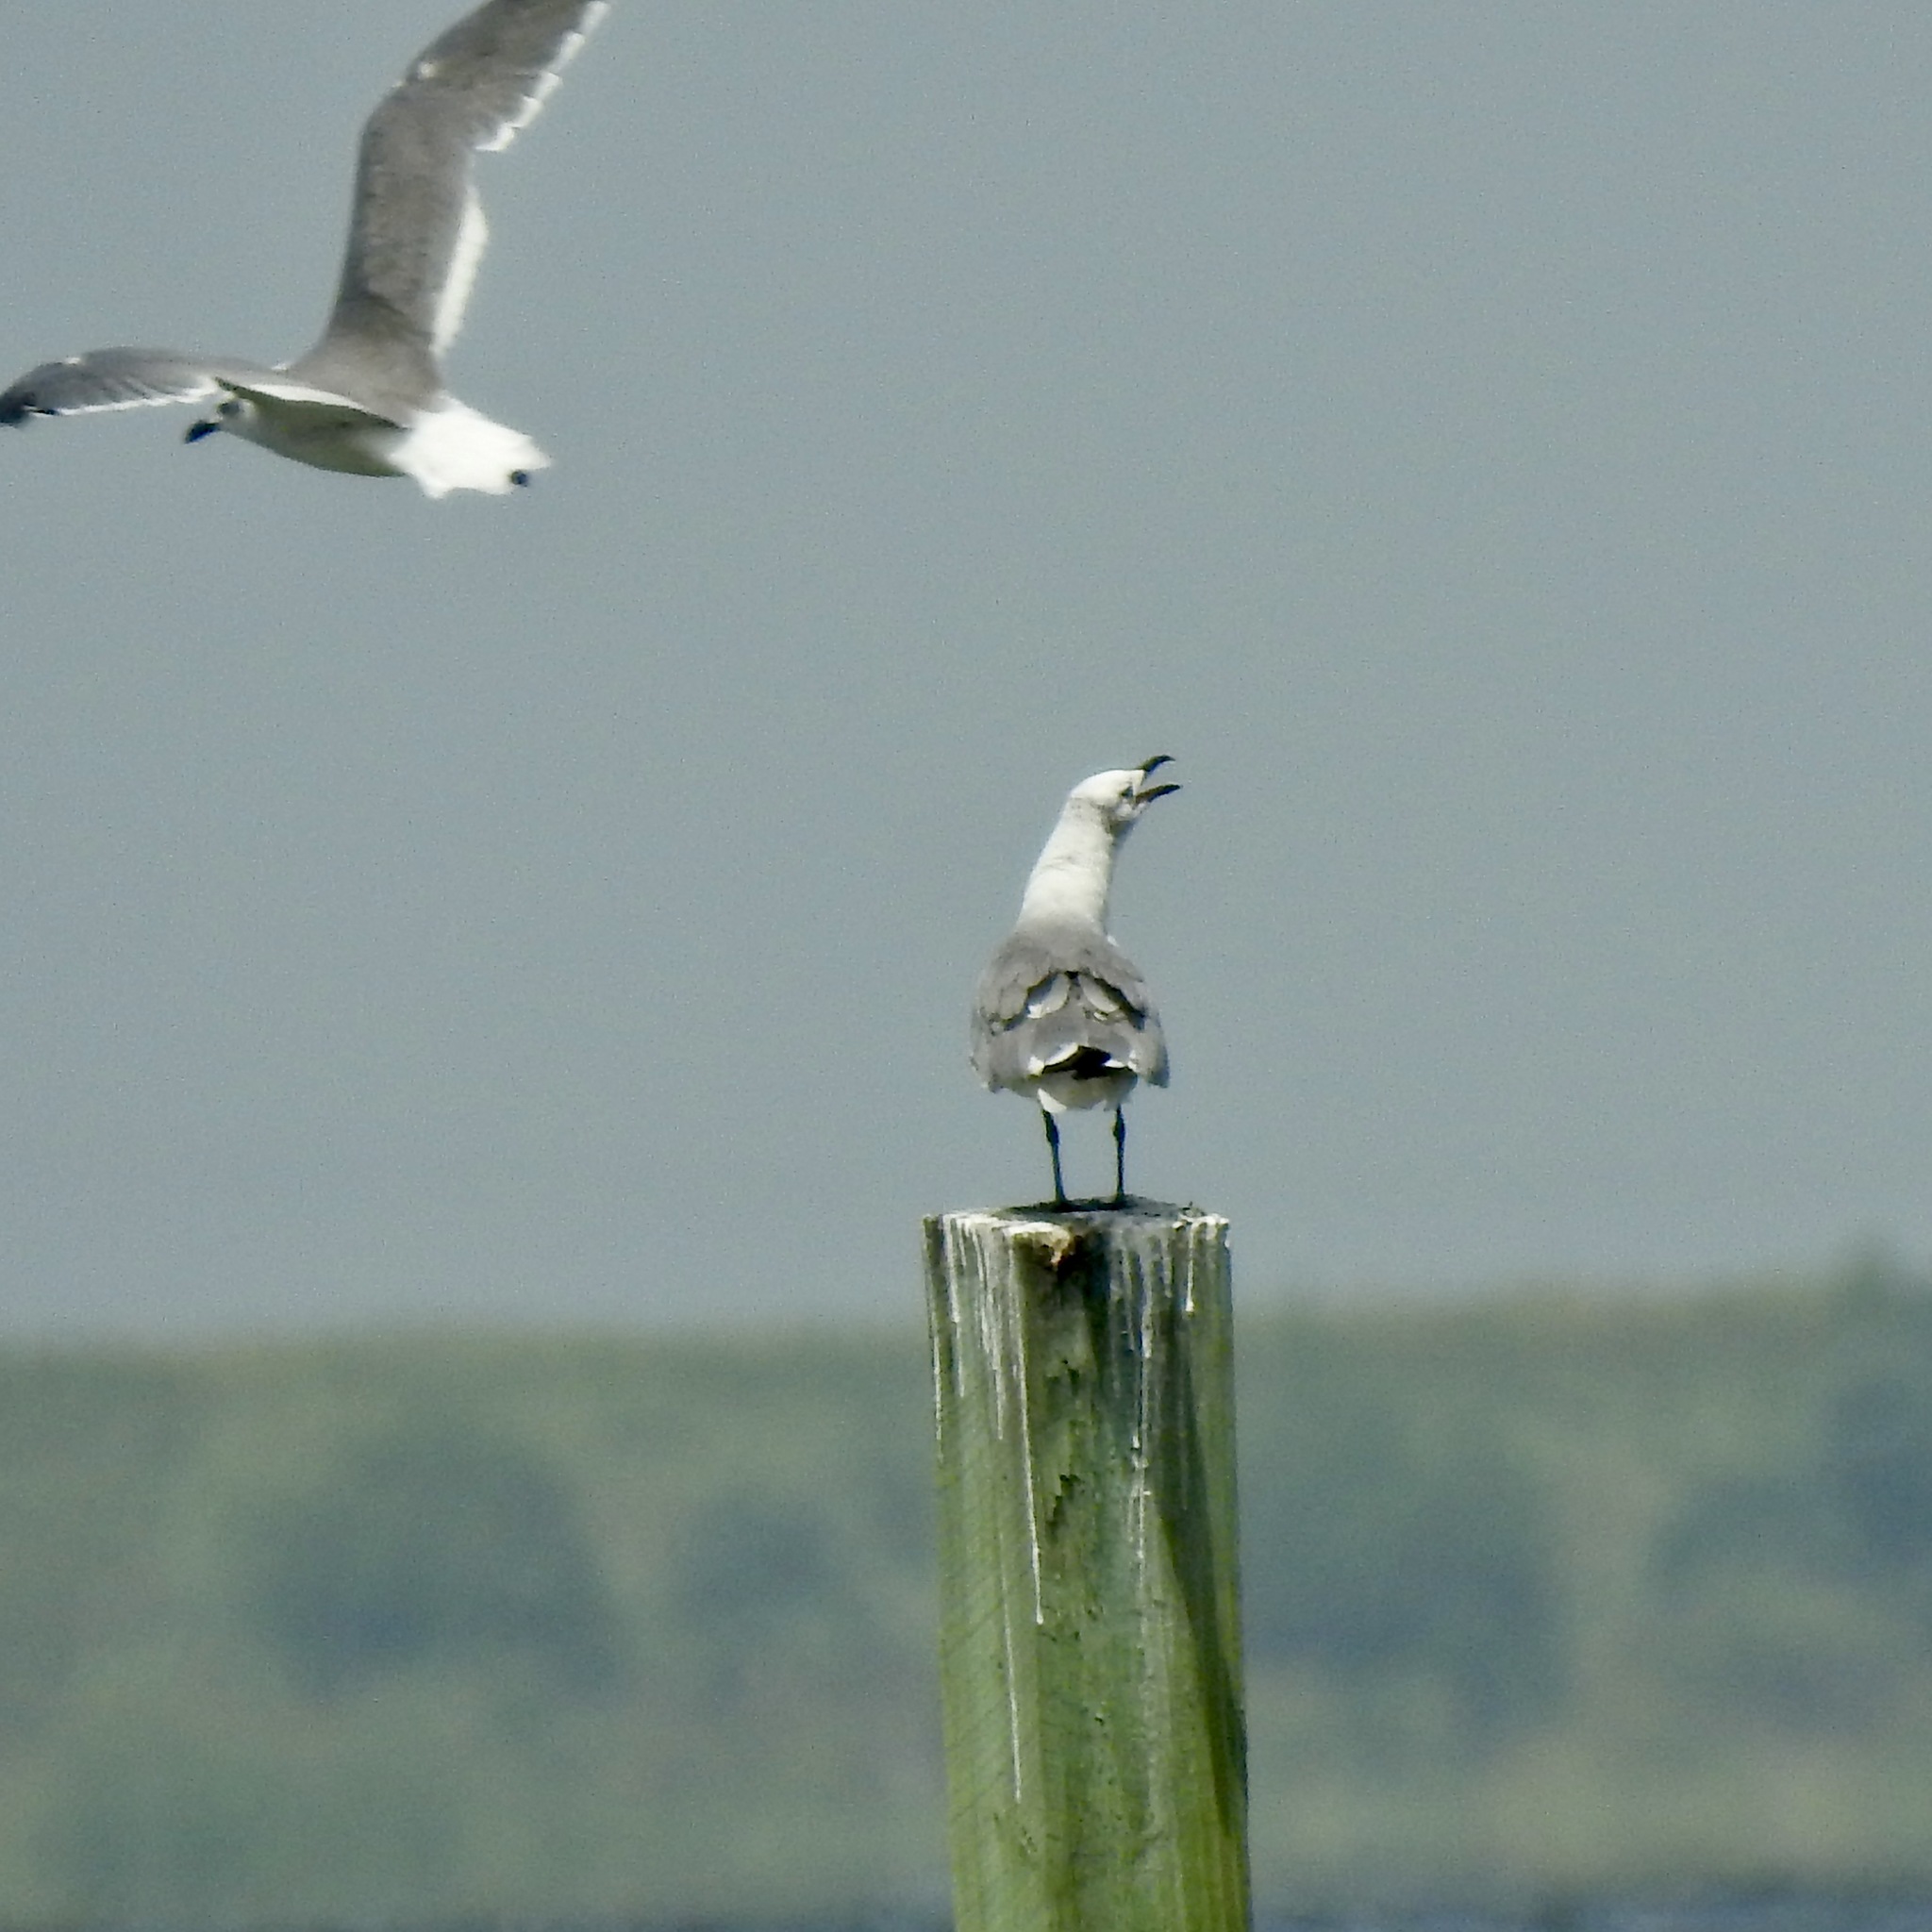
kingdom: Animalia
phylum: Chordata
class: Aves
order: Charadriiformes
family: Laridae
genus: Leucophaeus
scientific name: Leucophaeus atricilla
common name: Laughing gull
